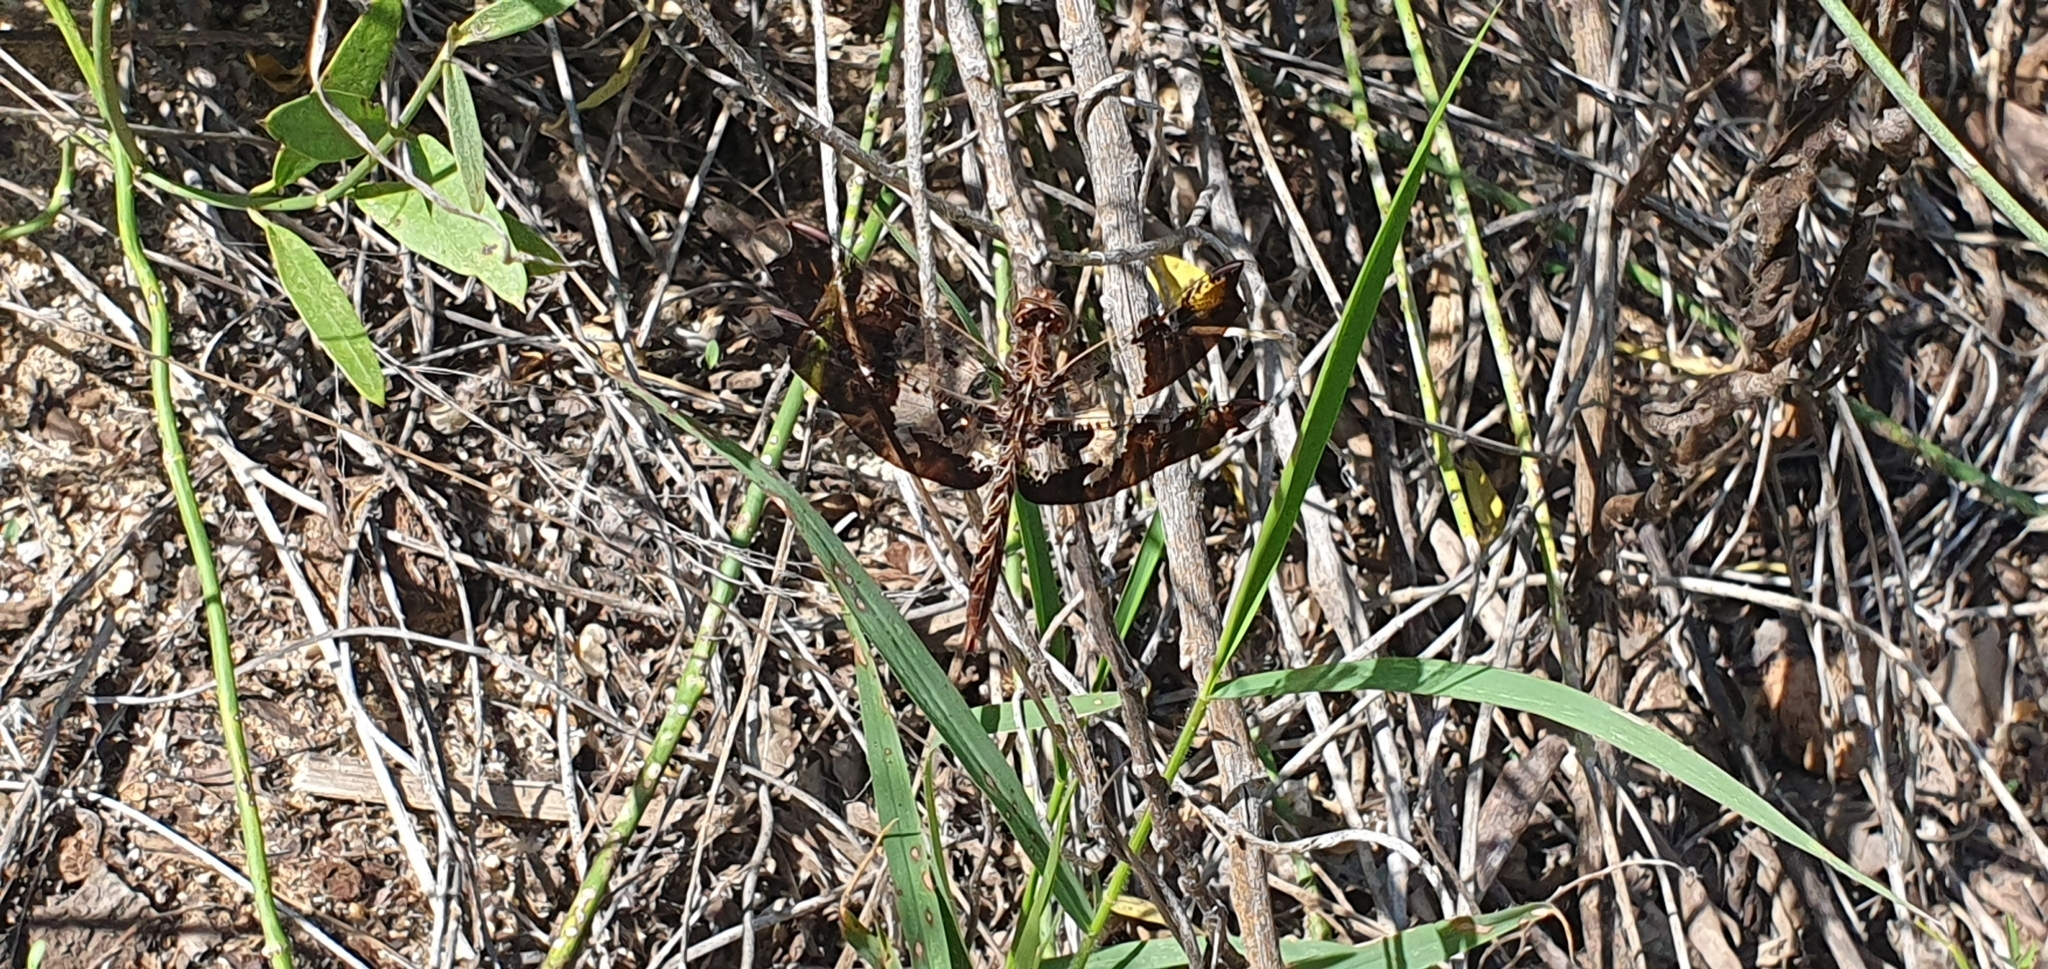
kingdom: Animalia
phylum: Arthropoda
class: Insecta
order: Odonata
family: Libellulidae
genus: Pseudoleon
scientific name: Pseudoleon superbus
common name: Filigree skimmer
